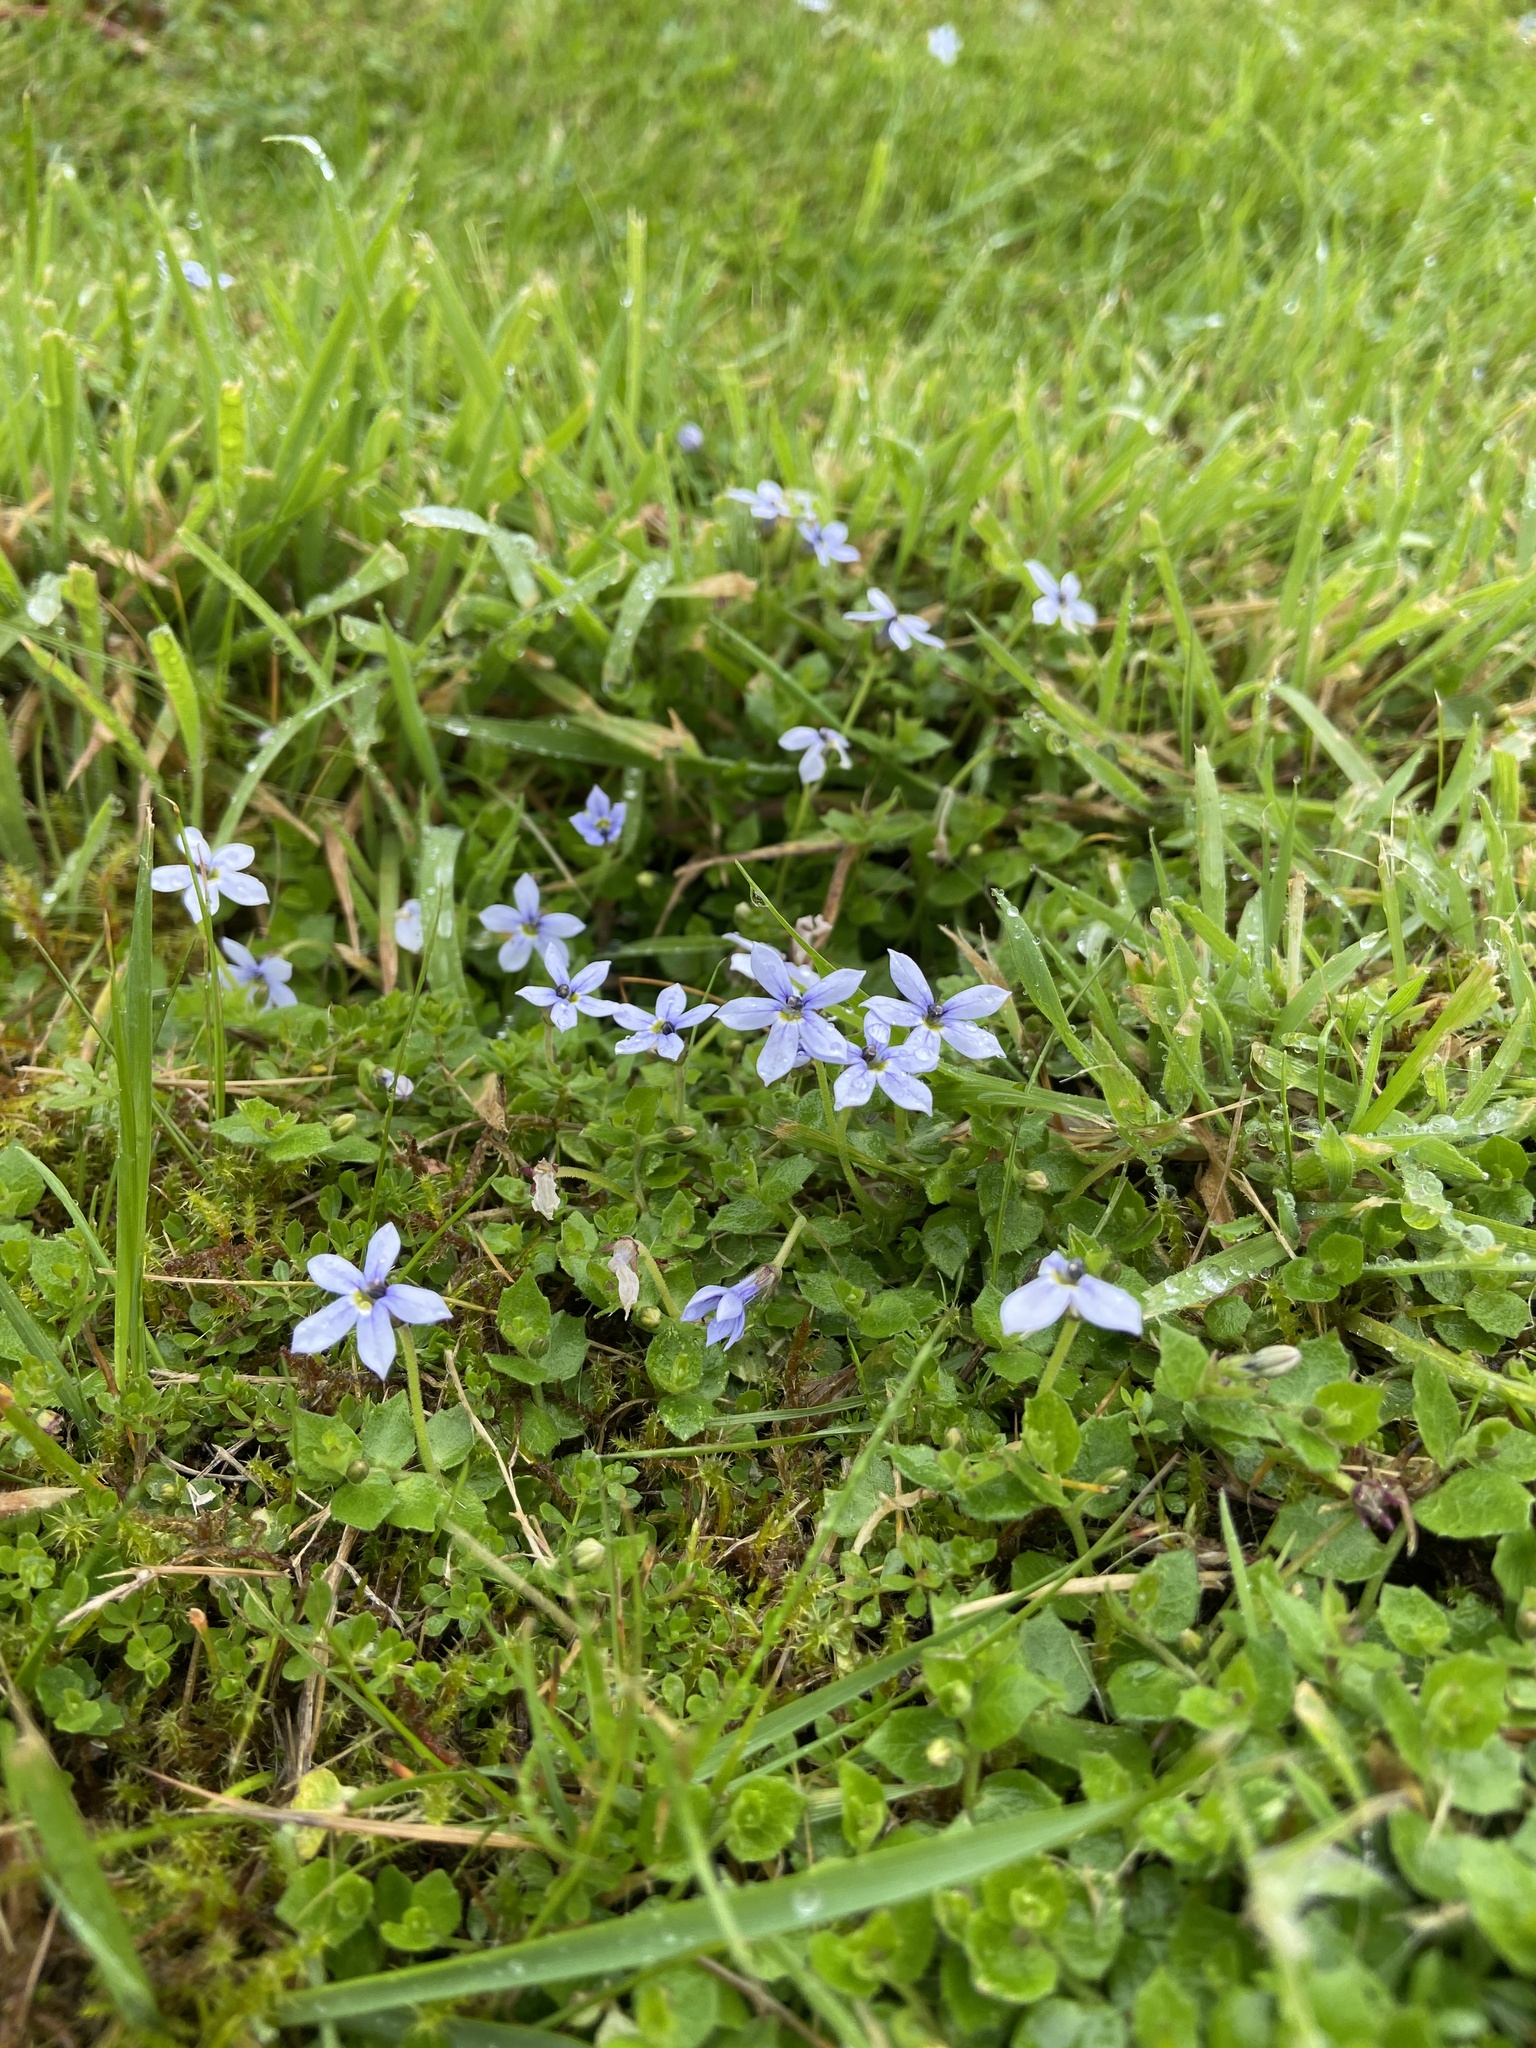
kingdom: Plantae
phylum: Tracheophyta
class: Magnoliopsida
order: Asterales
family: Campanulaceae
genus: Lobelia
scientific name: Lobelia pedunculata
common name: Matted pratia
